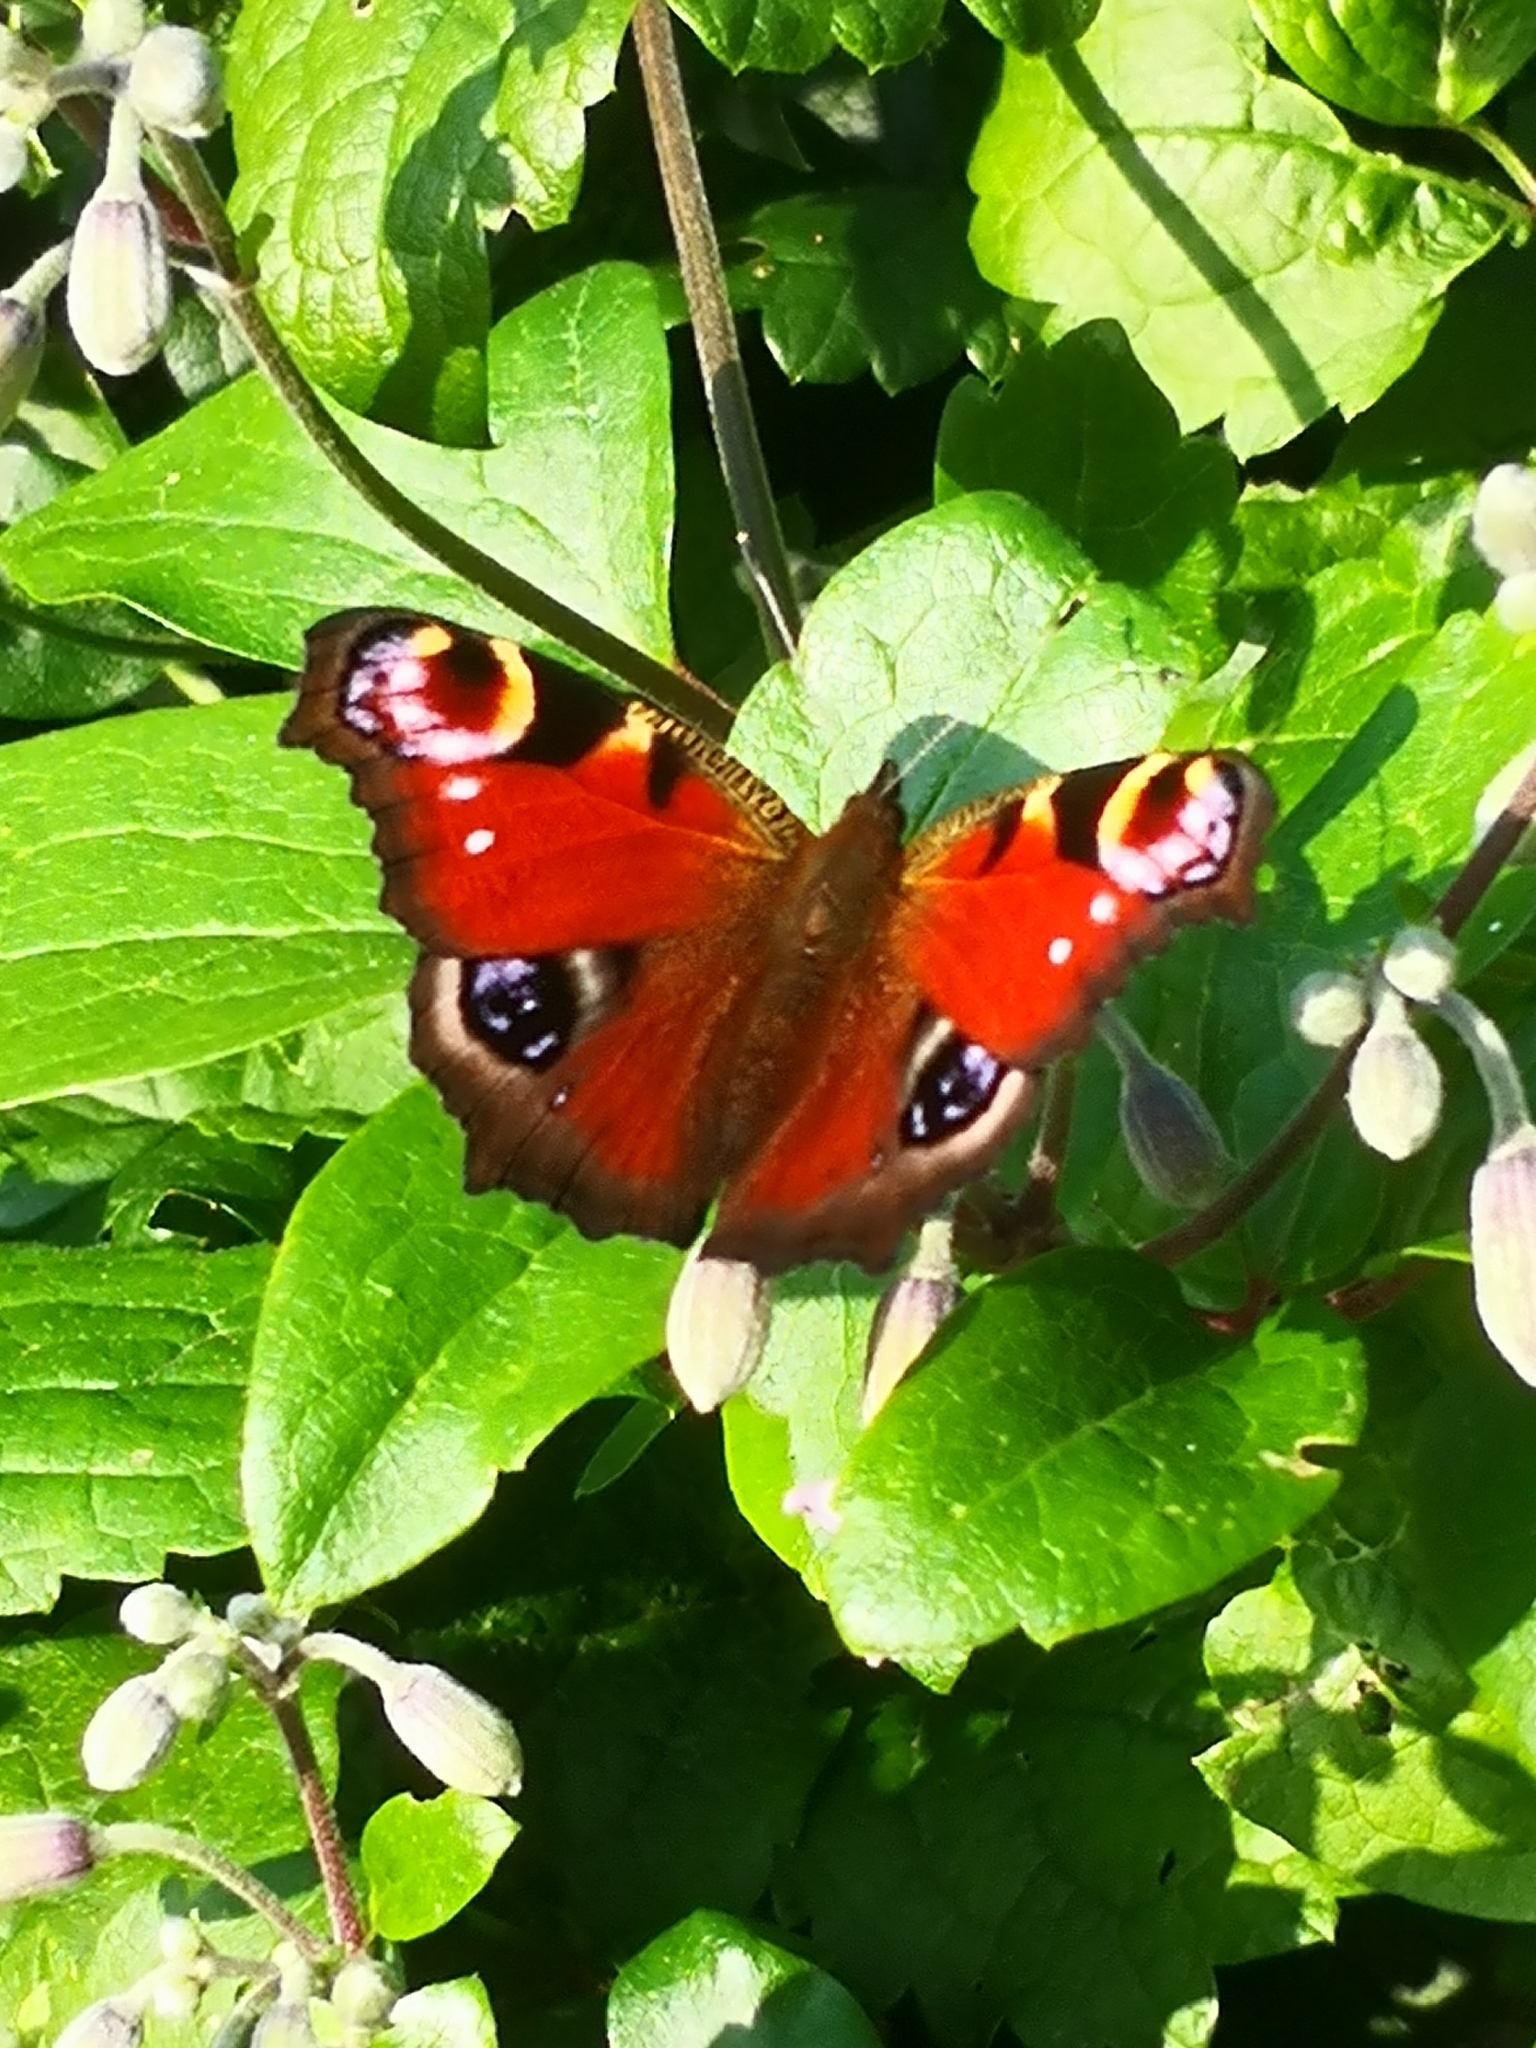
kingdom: Animalia
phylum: Arthropoda
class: Insecta
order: Lepidoptera
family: Nymphalidae
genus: Aglais
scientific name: Aglais io
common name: Peacock
